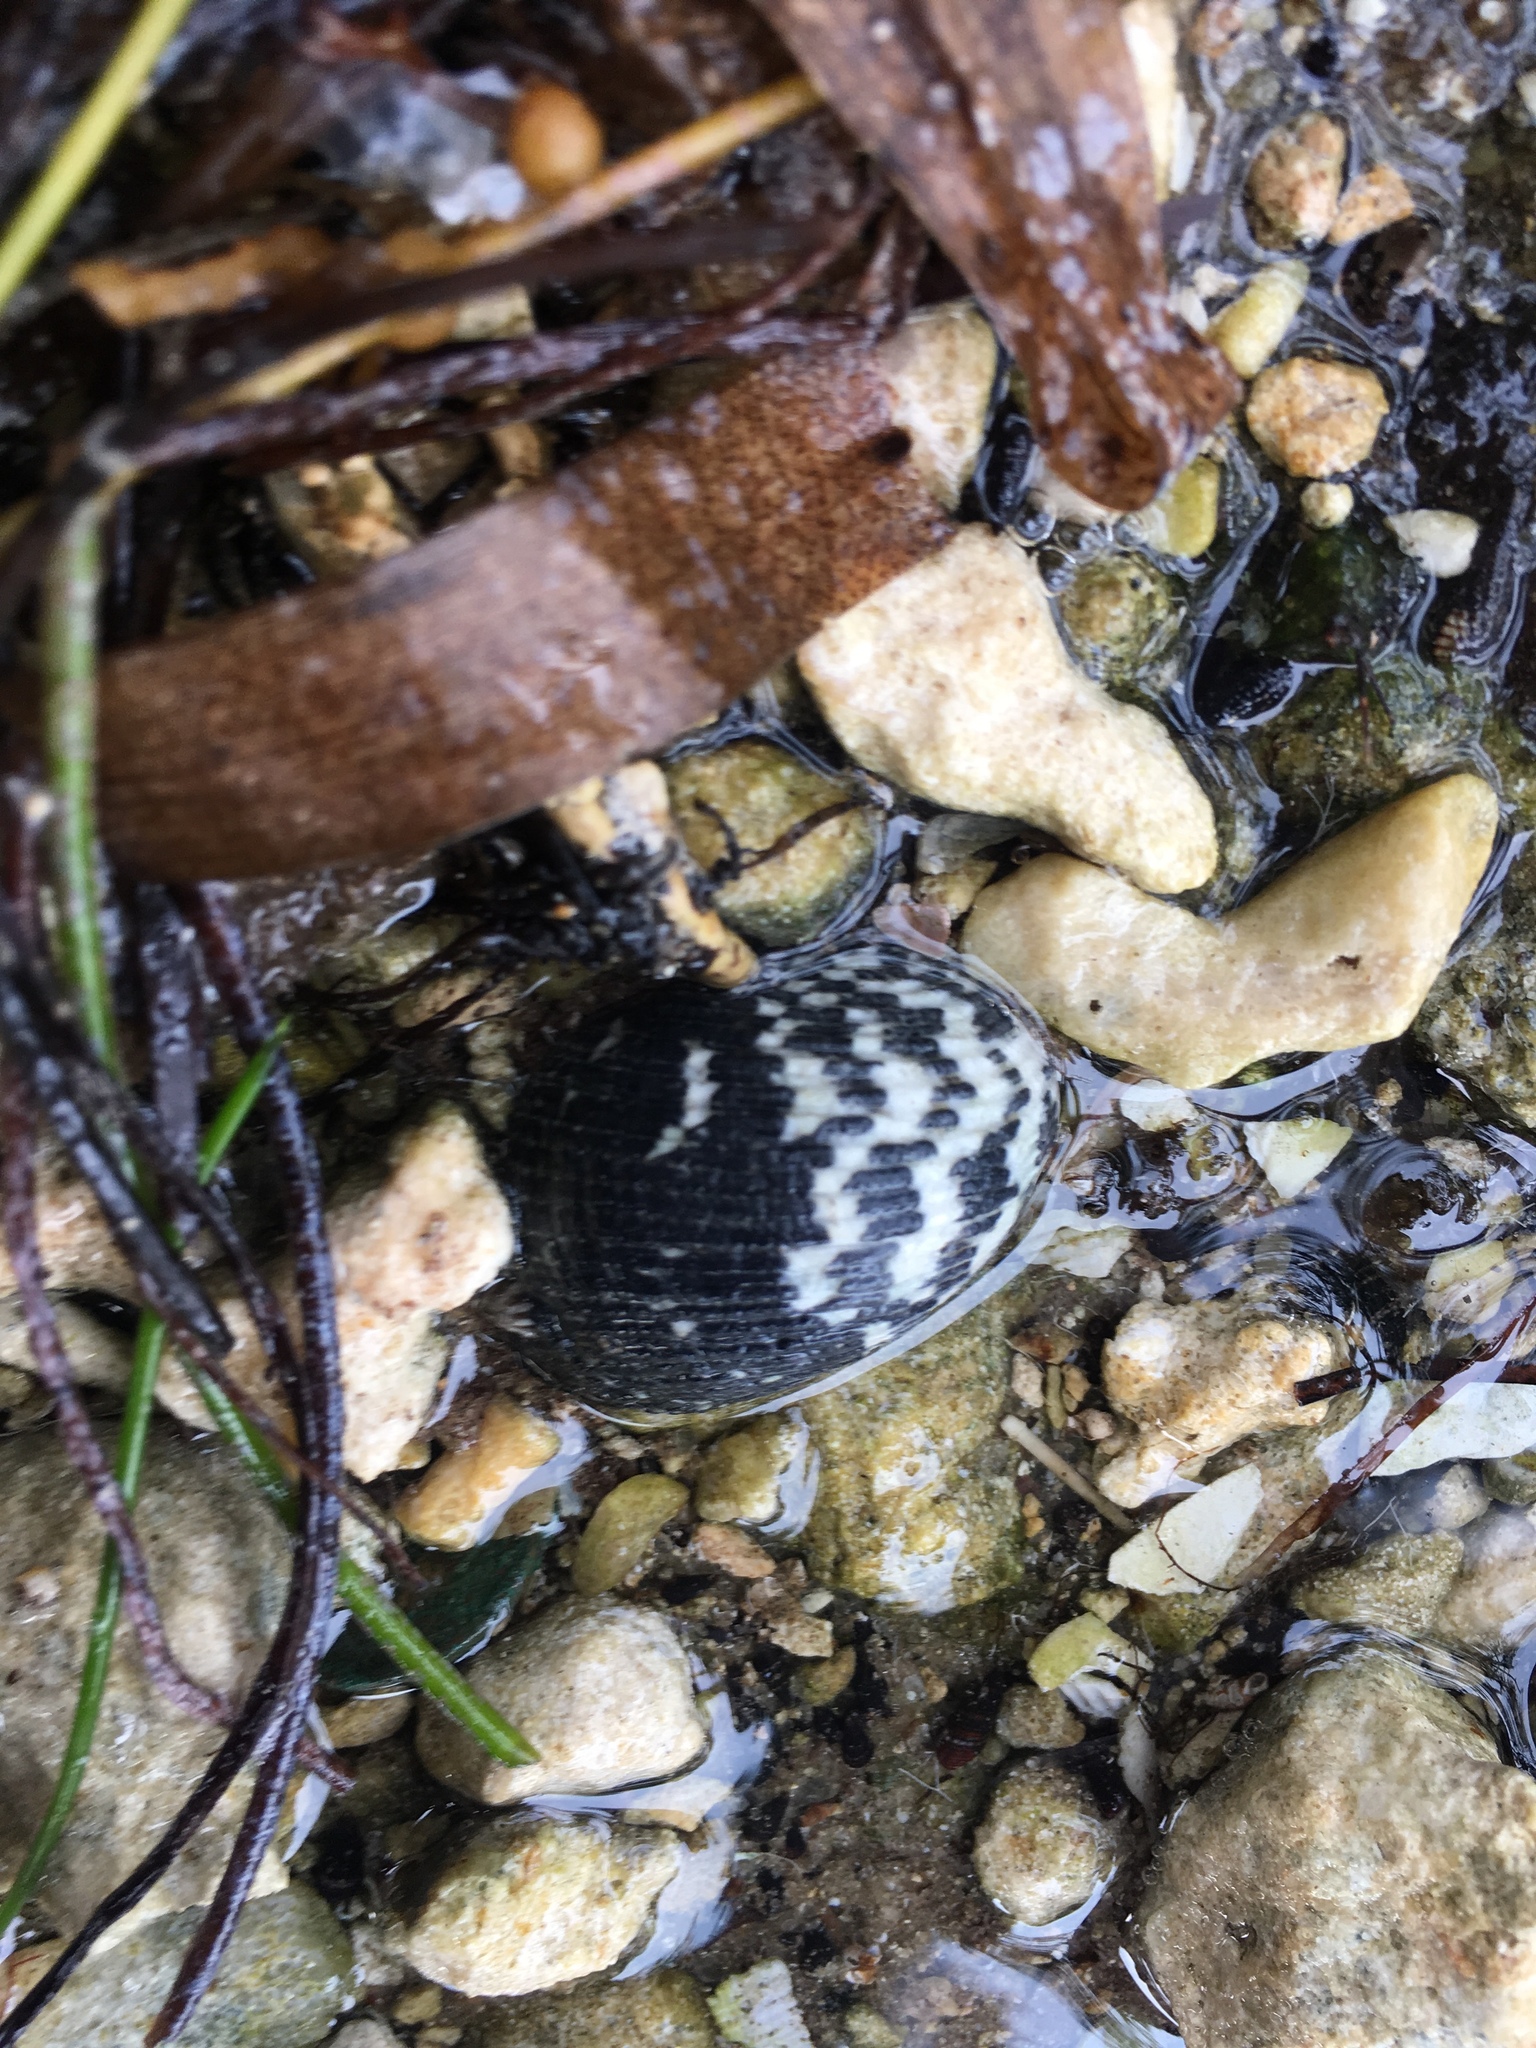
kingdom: Animalia
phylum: Mollusca
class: Gastropoda
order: Cycloneritida
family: Neritidae
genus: Nerita
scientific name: Nerita fulgurans
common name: Antillean nerite
